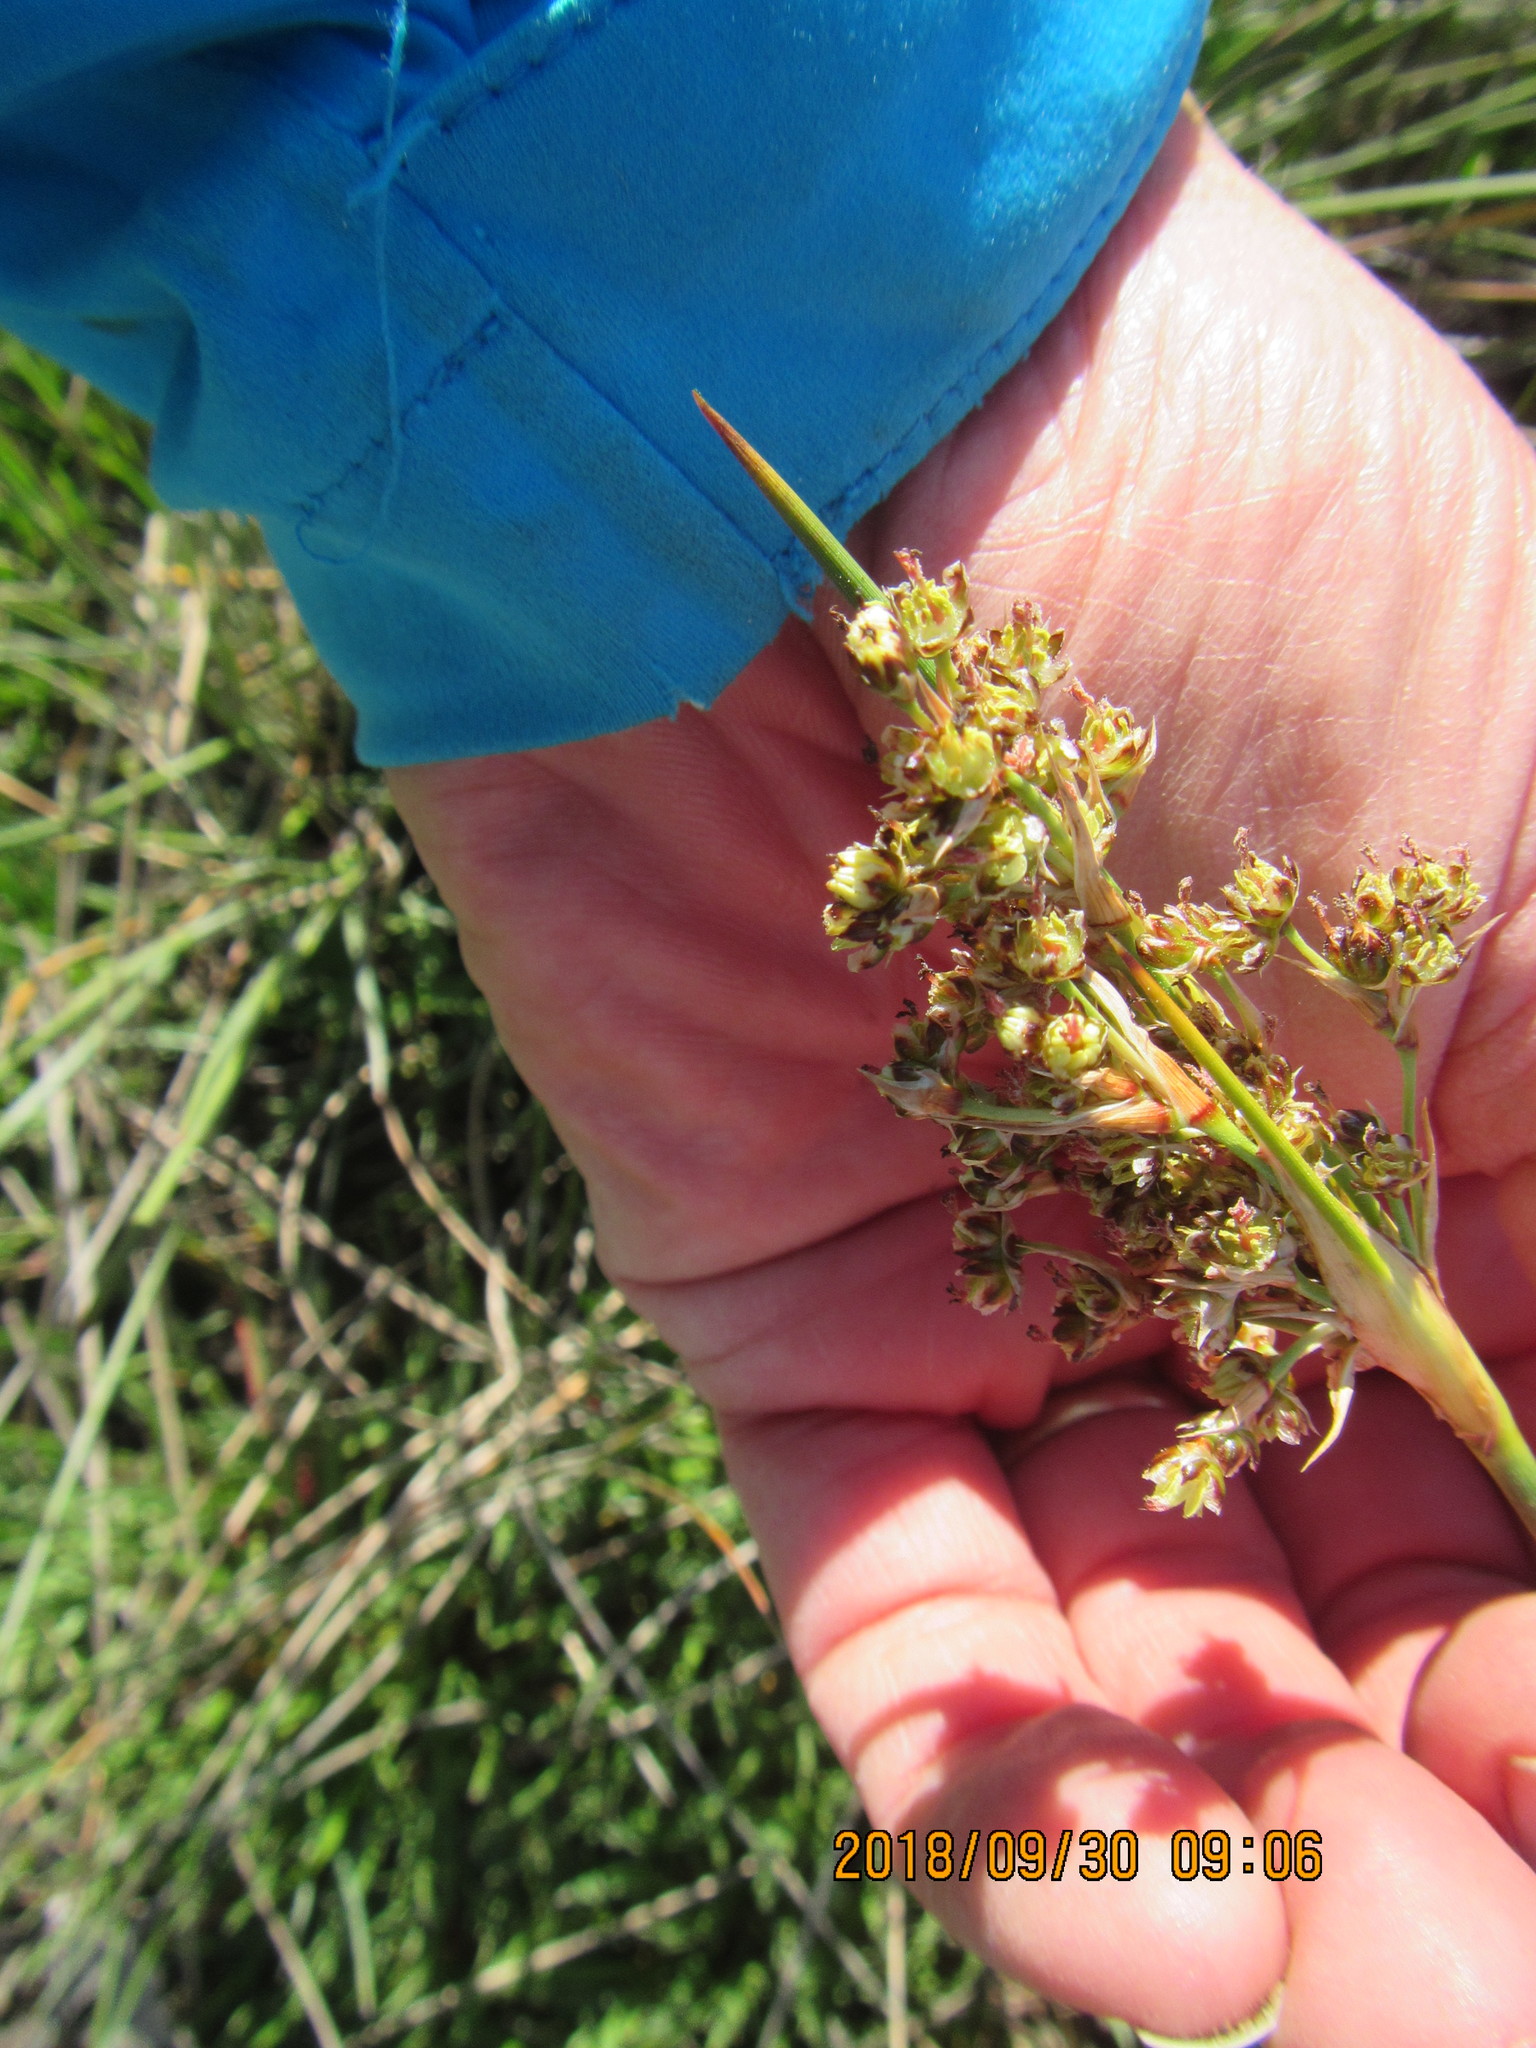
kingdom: Plantae
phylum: Tracheophyta
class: Liliopsida
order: Poales
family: Juncaceae
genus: Juncus
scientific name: Juncus acutus
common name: Sharp rush
